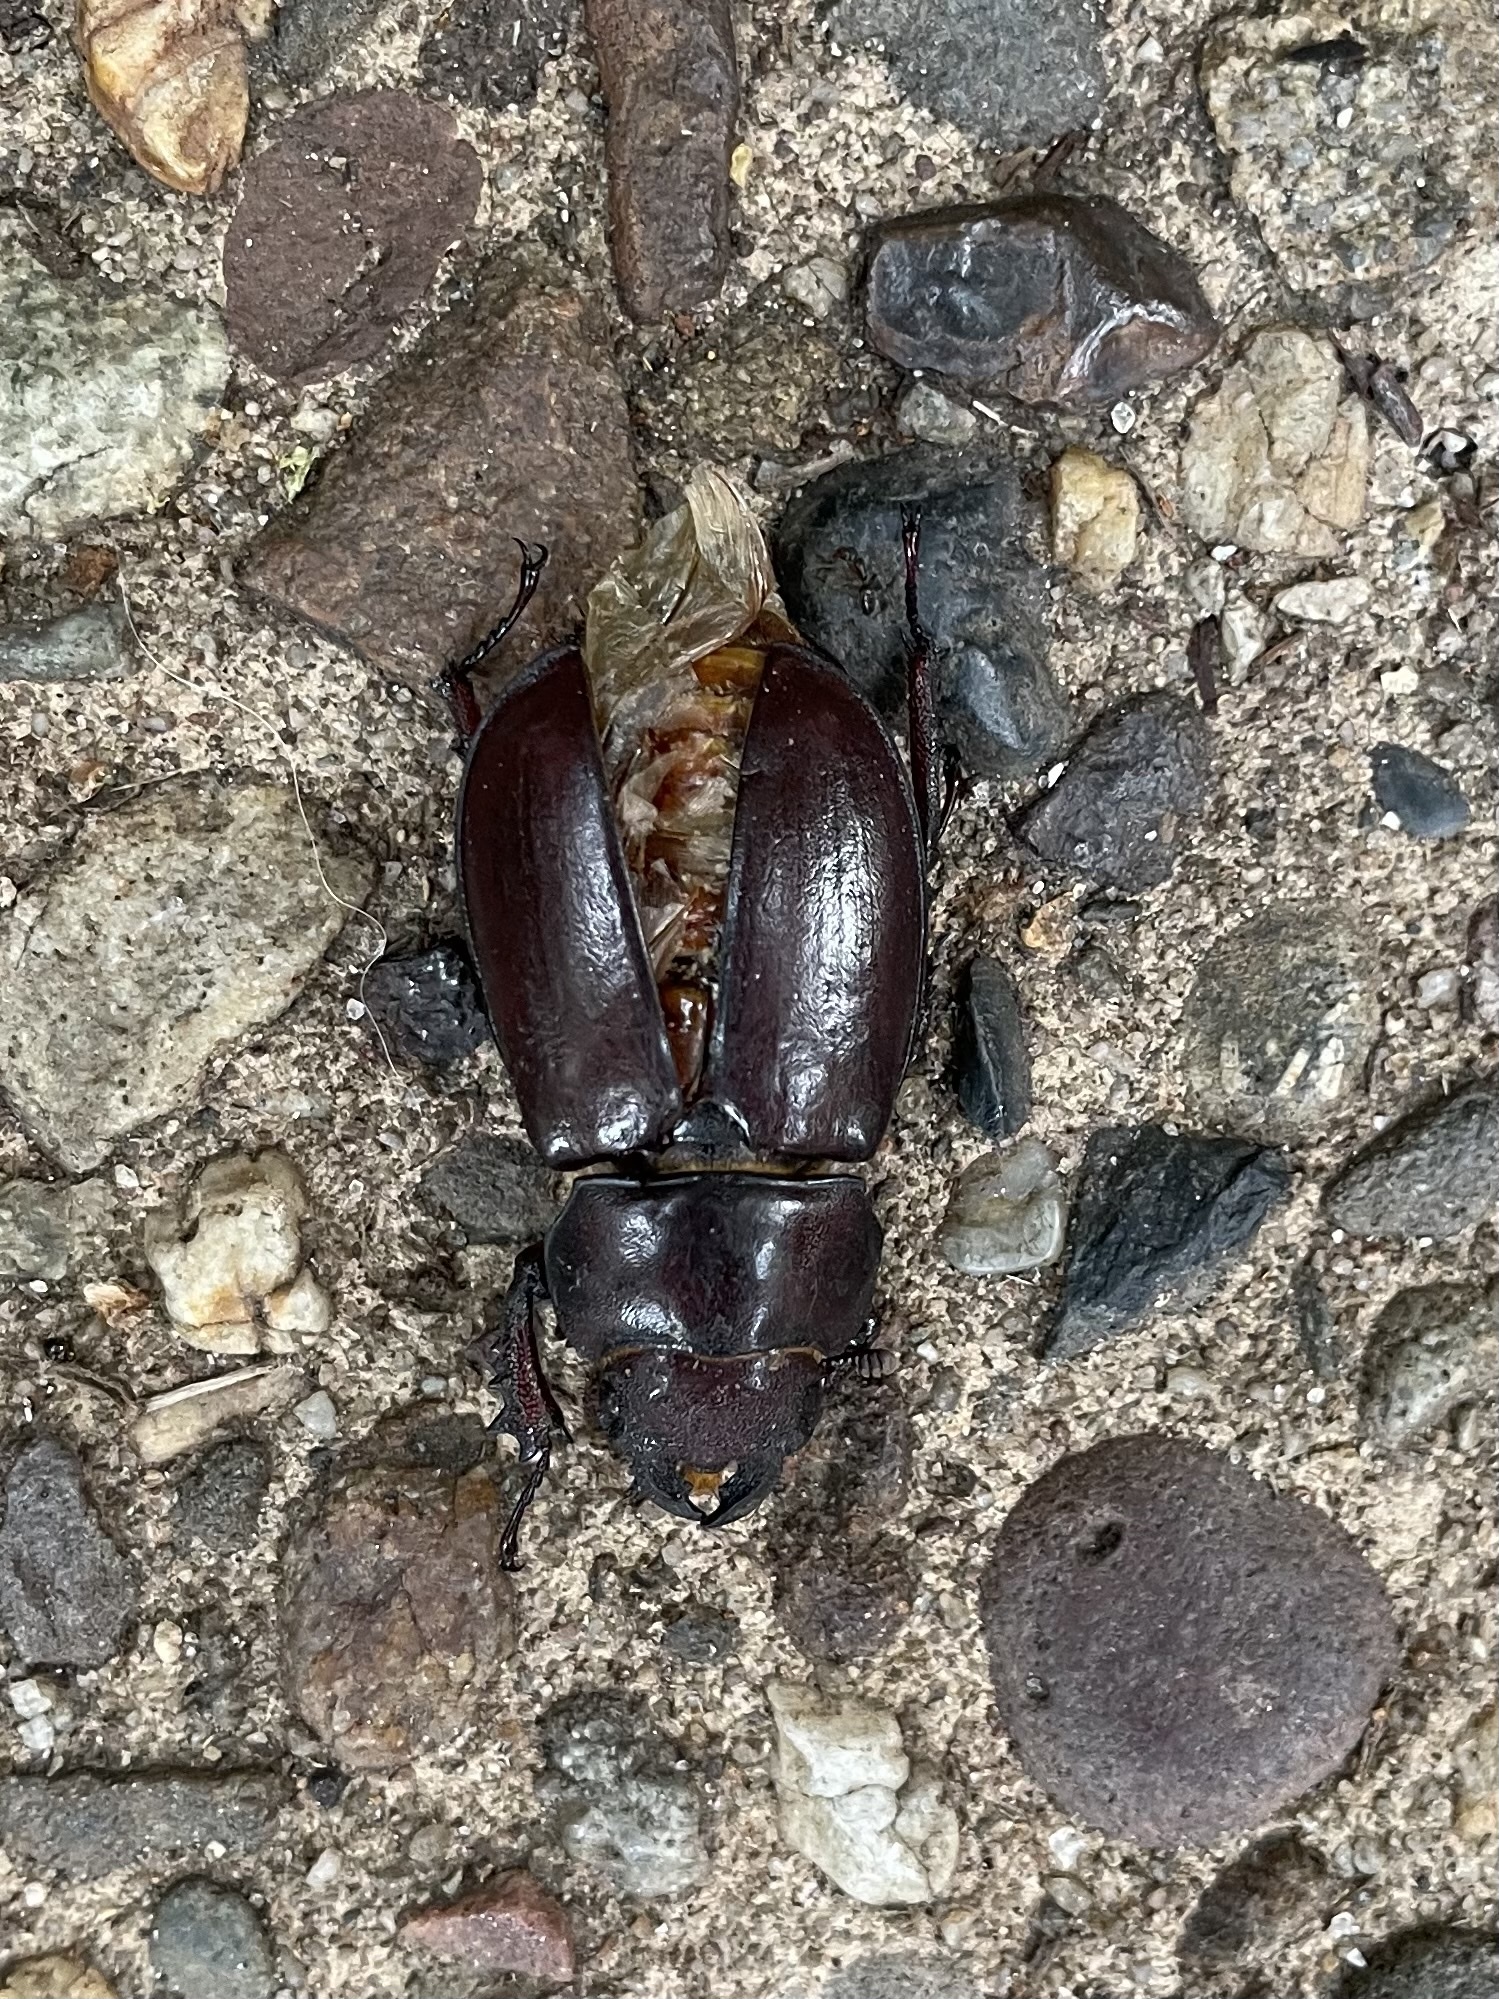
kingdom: Animalia
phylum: Arthropoda
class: Insecta
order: Coleoptera
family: Lucanidae
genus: Lucanus
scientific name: Lucanus capreolus
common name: Stag beetle
